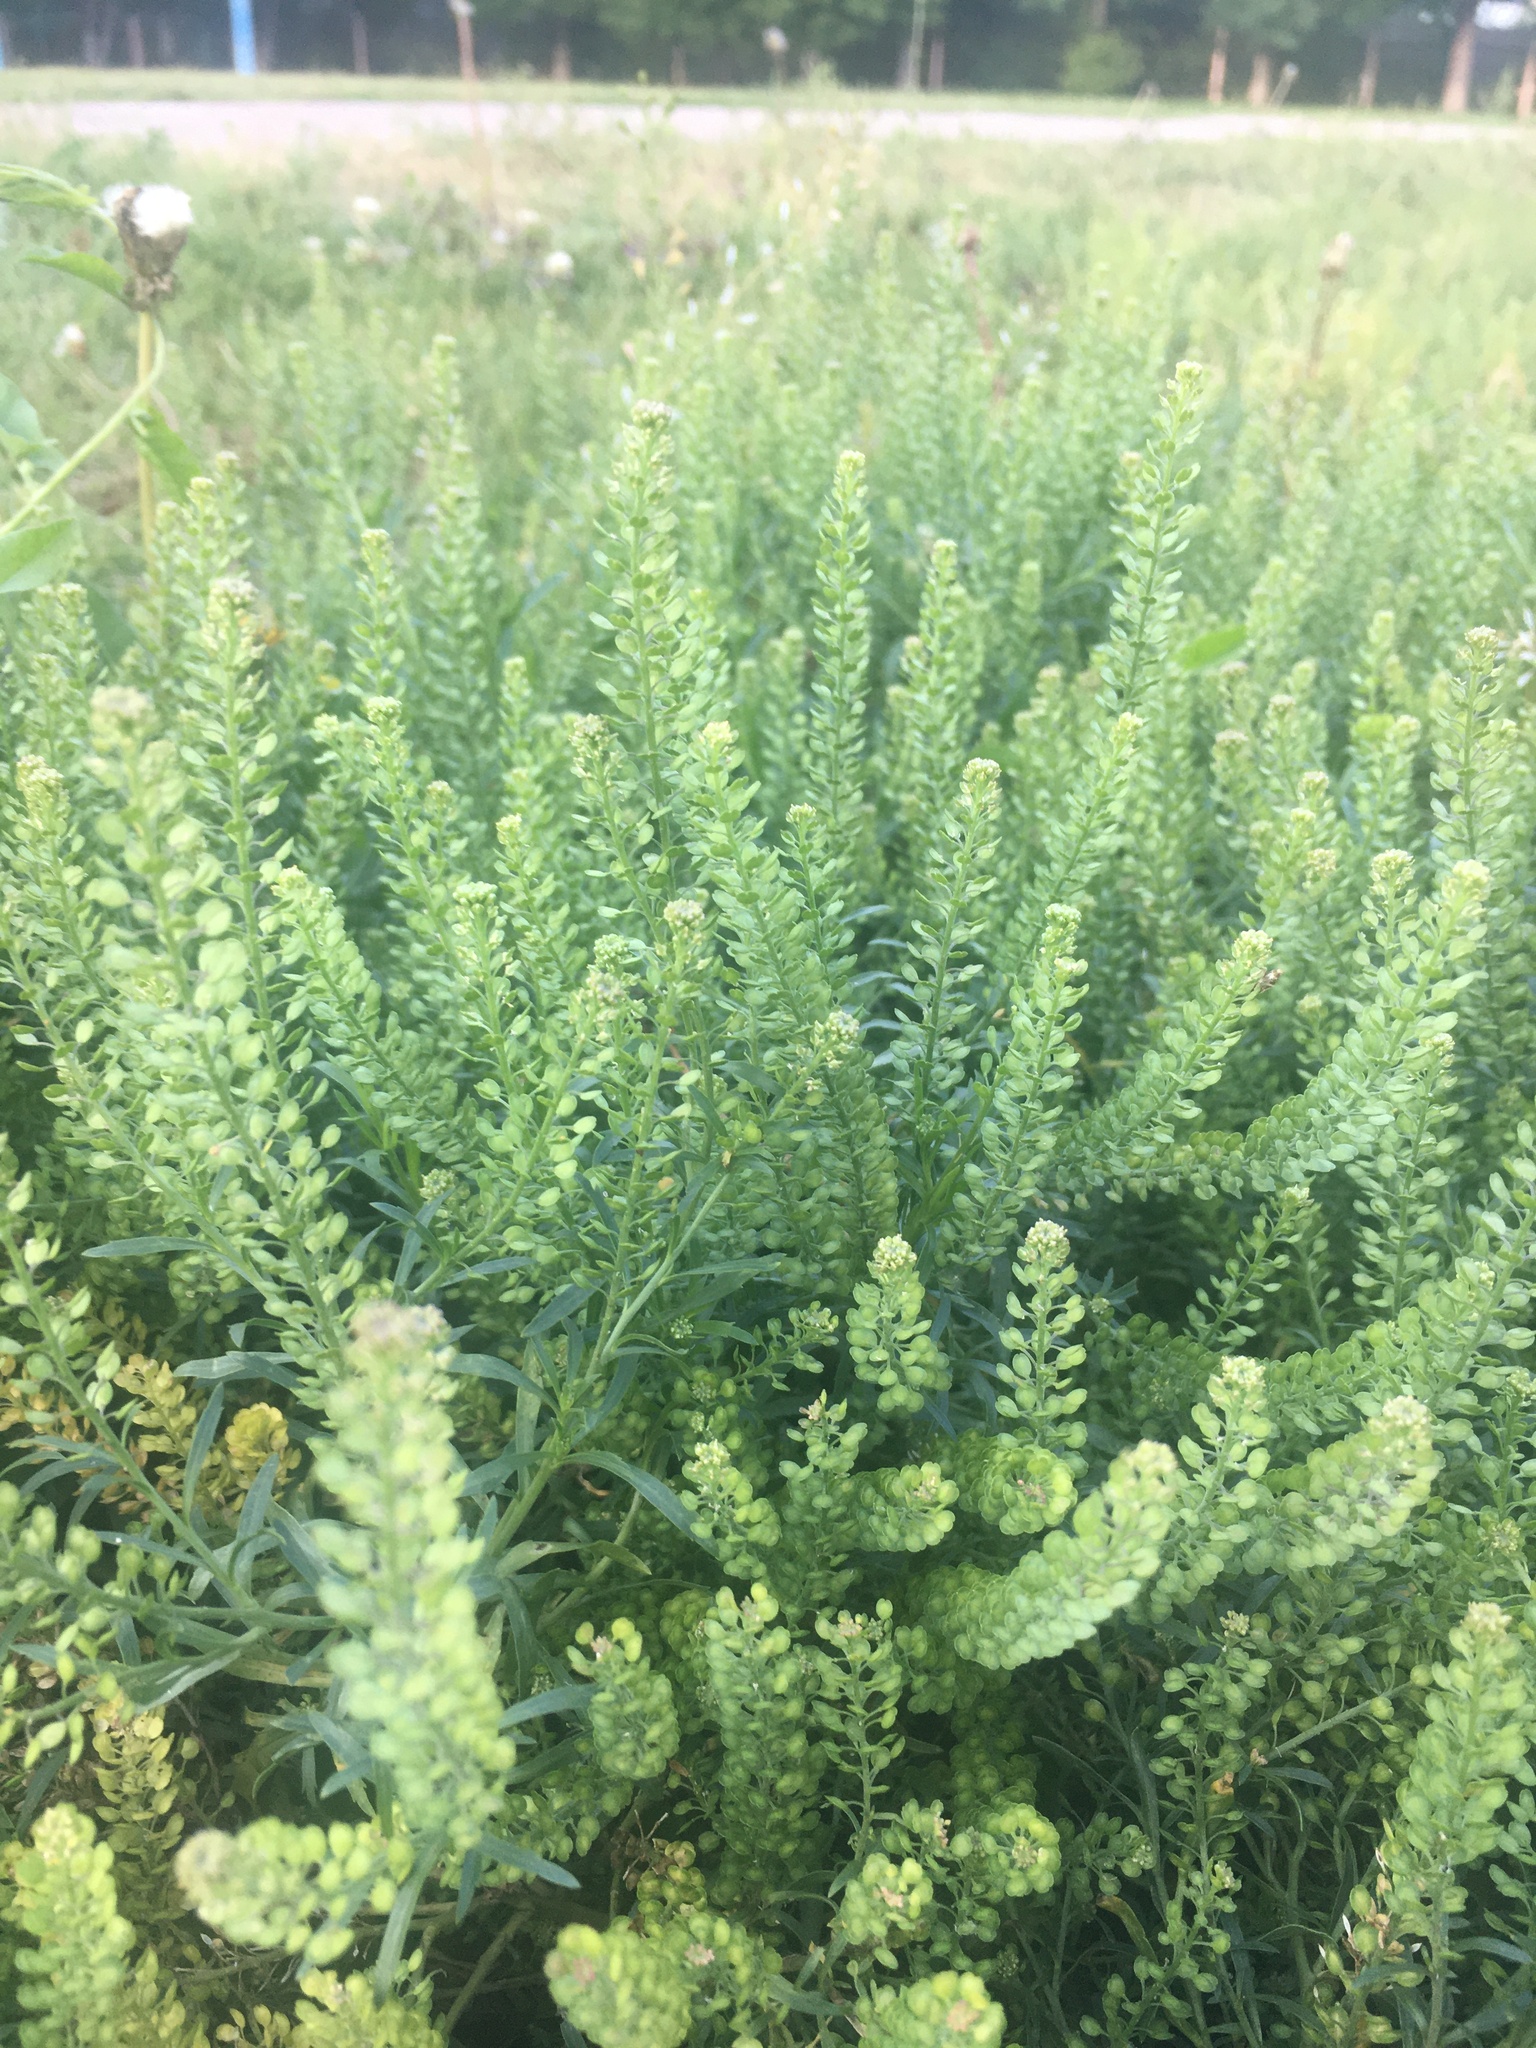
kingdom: Plantae
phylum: Tracheophyta
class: Magnoliopsida
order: Brassicales
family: Brassicaceae
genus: Lepidium
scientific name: Lepidium densiflorum
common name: Miner's pepperwort
